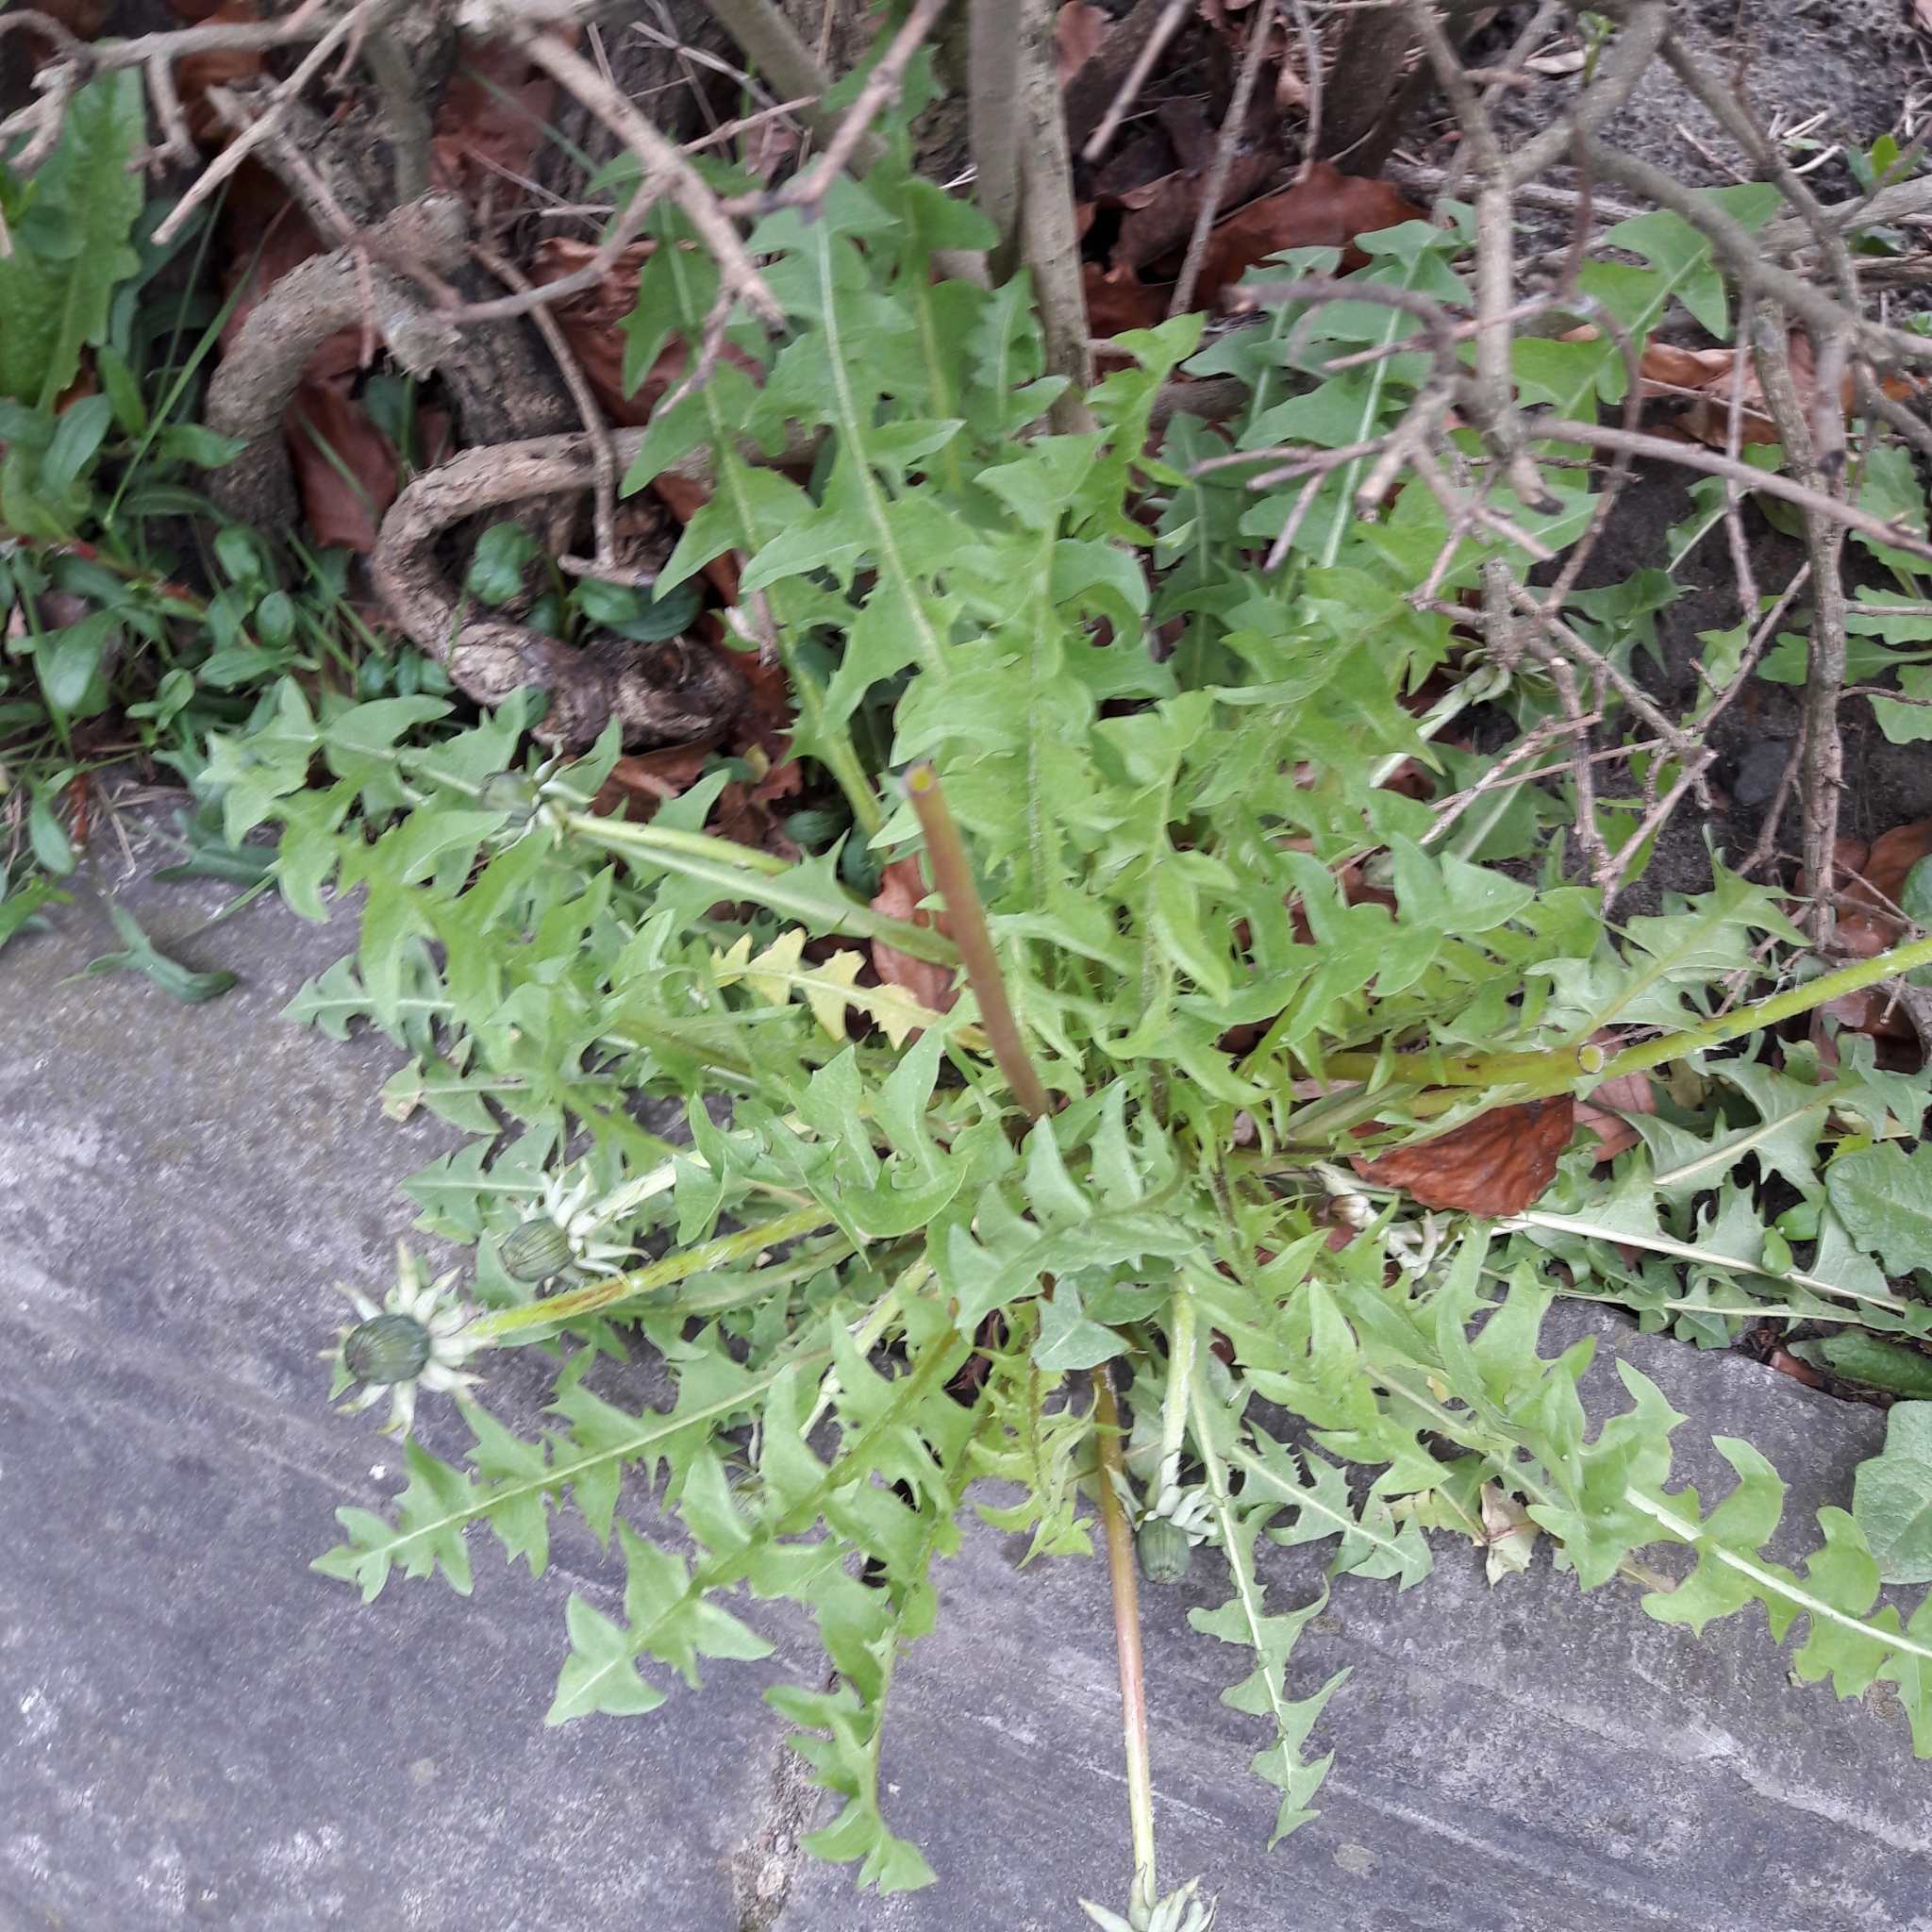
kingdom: Plantae
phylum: Tracheophyta
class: Magnoliopsida
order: Asterales
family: Asteraceae
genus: Taraxacum
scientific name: Taraxacum officinale
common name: Common dandelion
